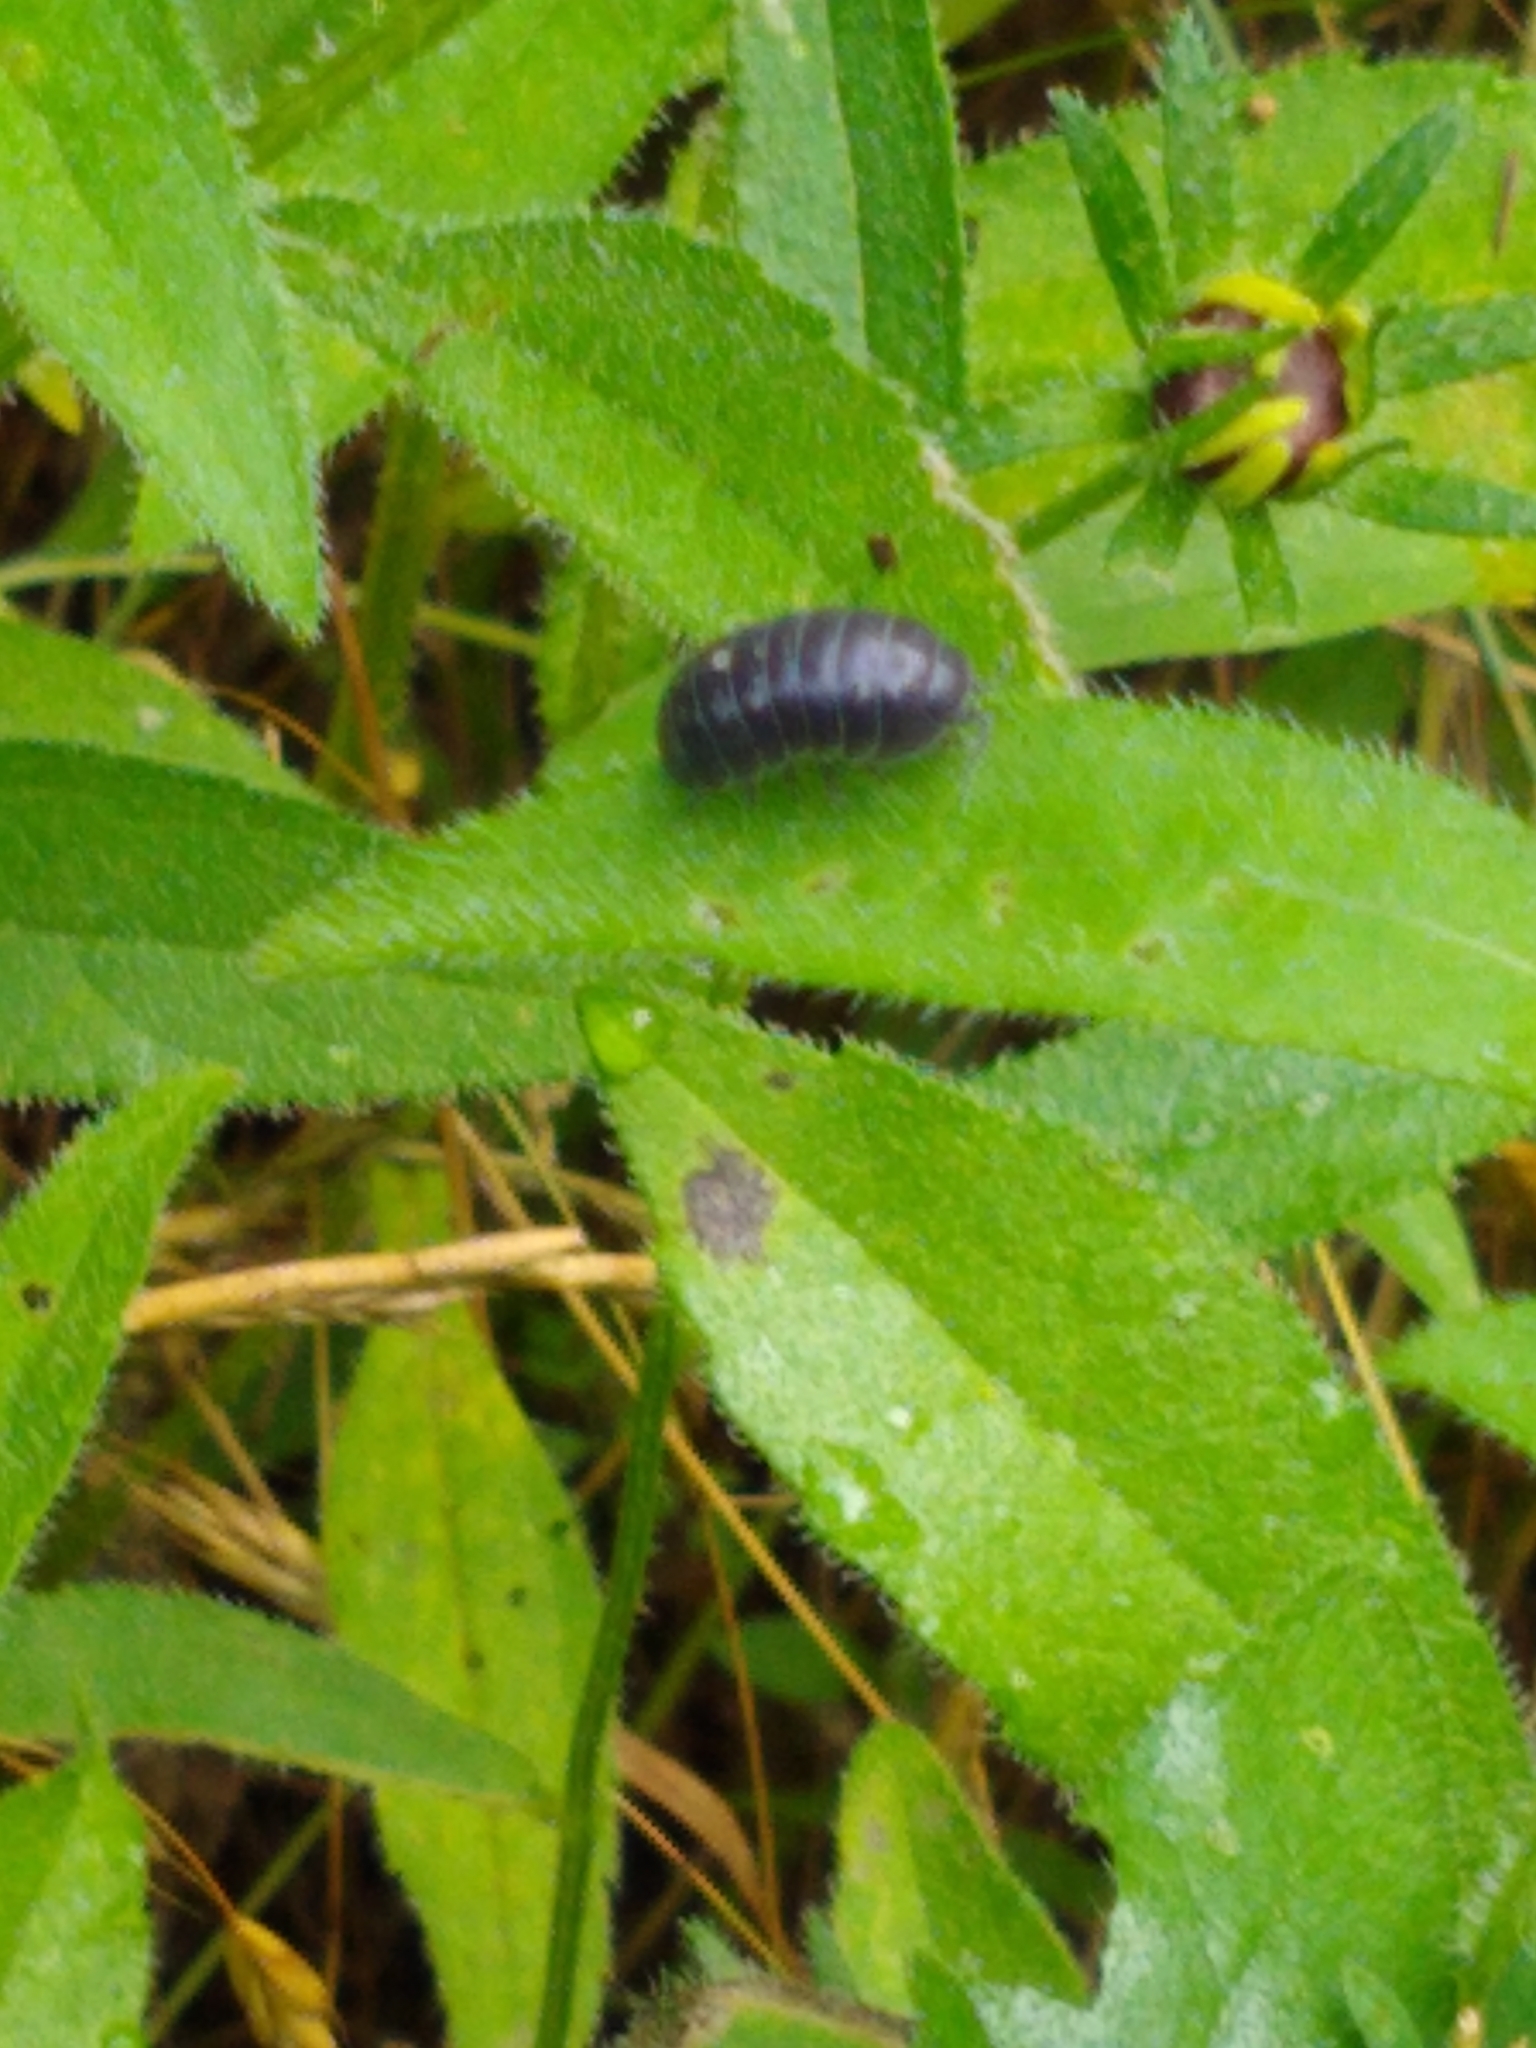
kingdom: Animalia
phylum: Arthropoda
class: Malacostraca
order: Isopoda
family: Armadillidiidae
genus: Armadillidium
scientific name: Armadillidium vulgare
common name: Common pill woodlouse
